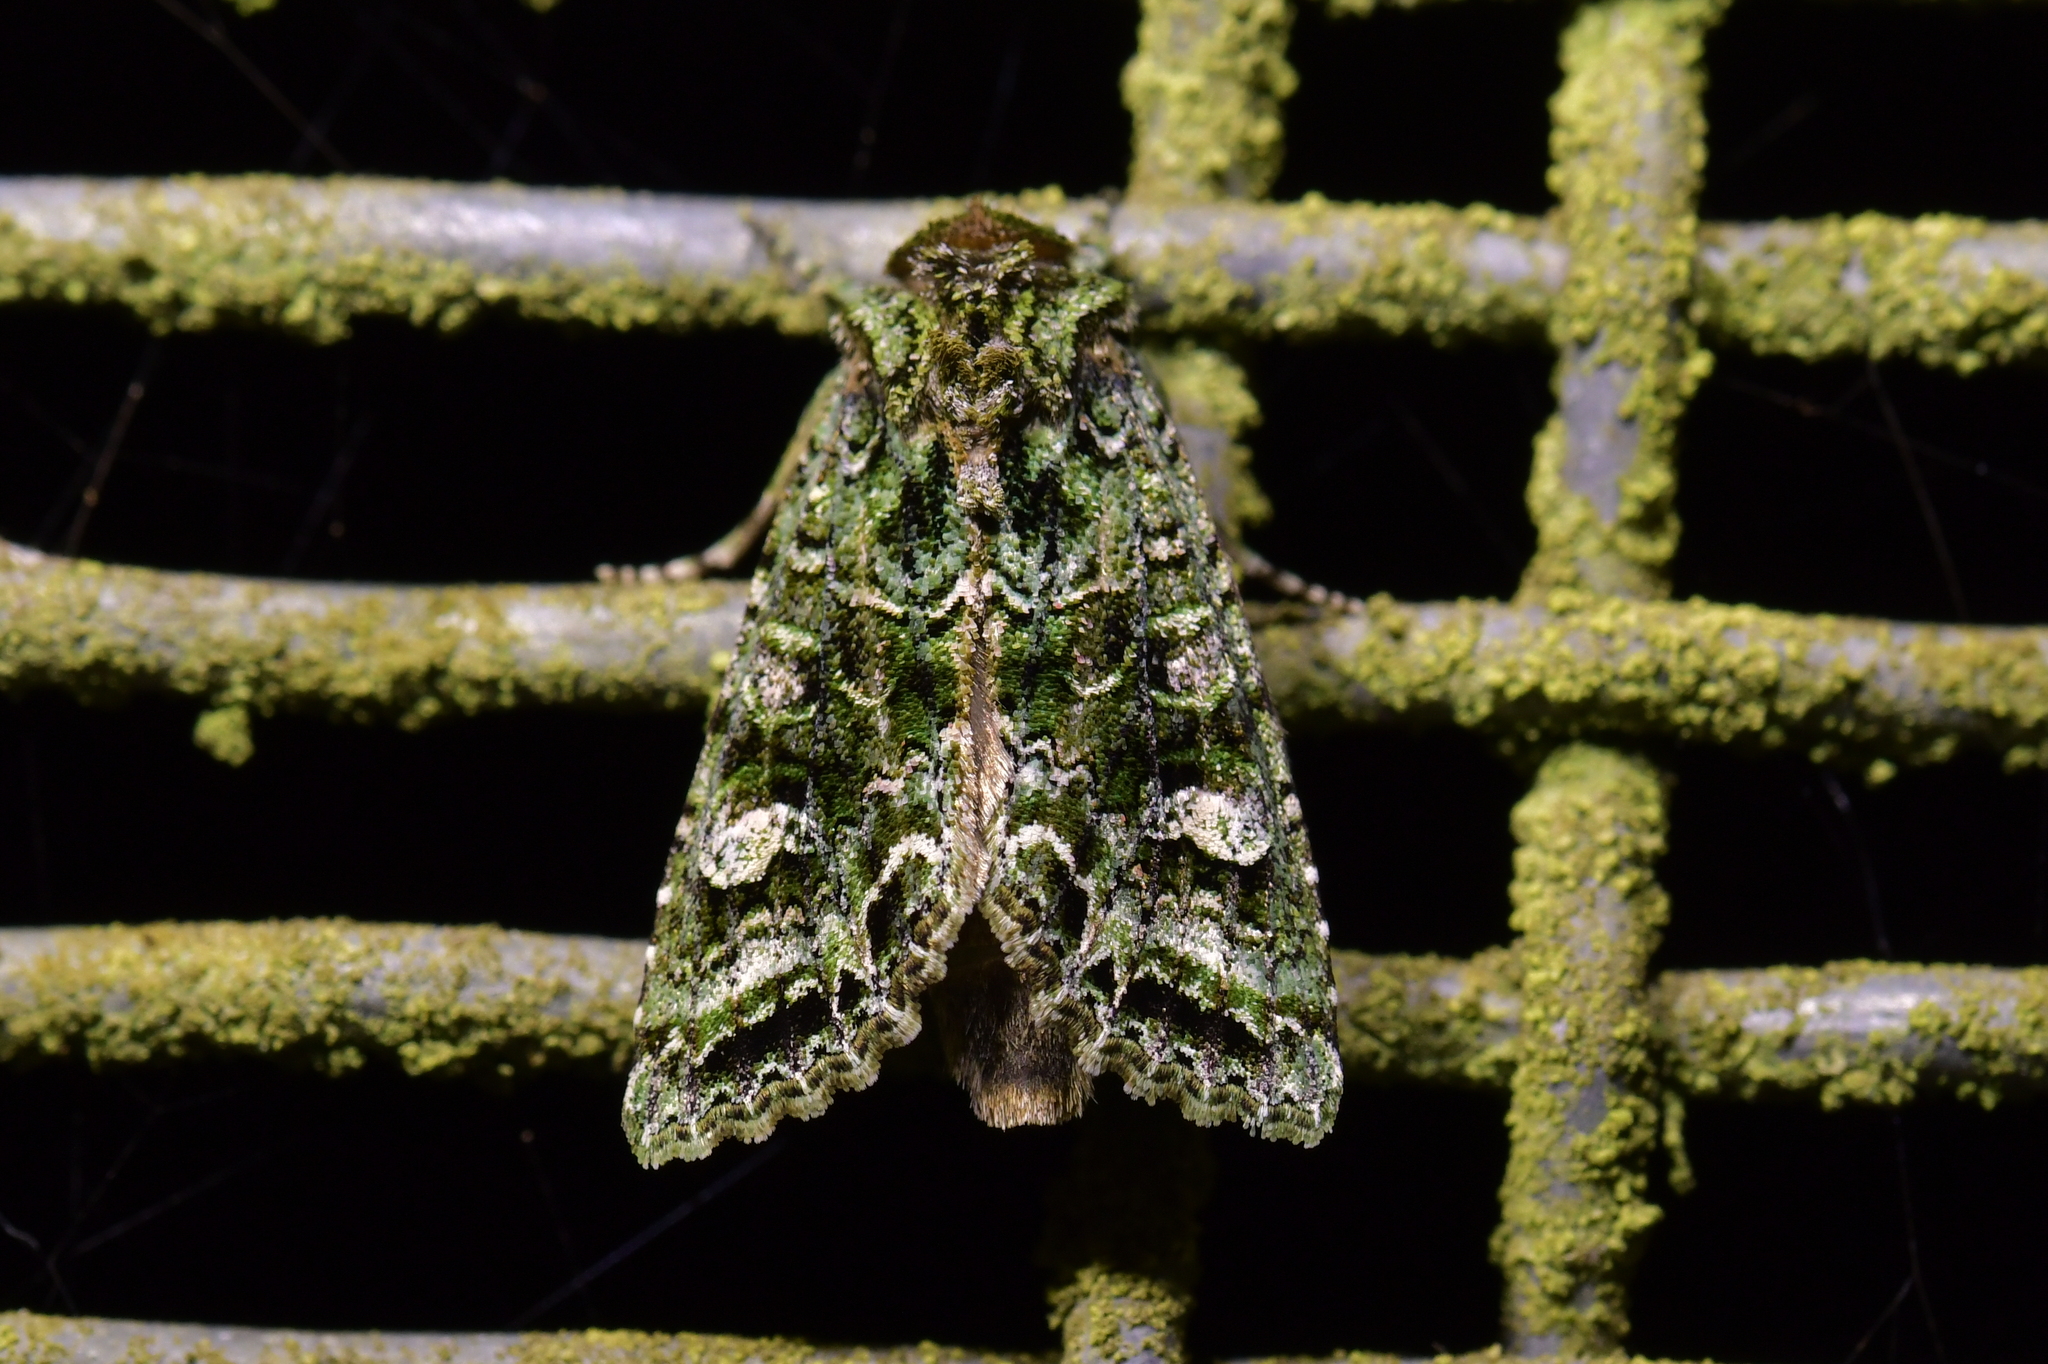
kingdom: Animalia
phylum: Arthropoda
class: Insecta
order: Lepidoptera
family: Noctuidae
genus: Ichneutica
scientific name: Ichneutica
